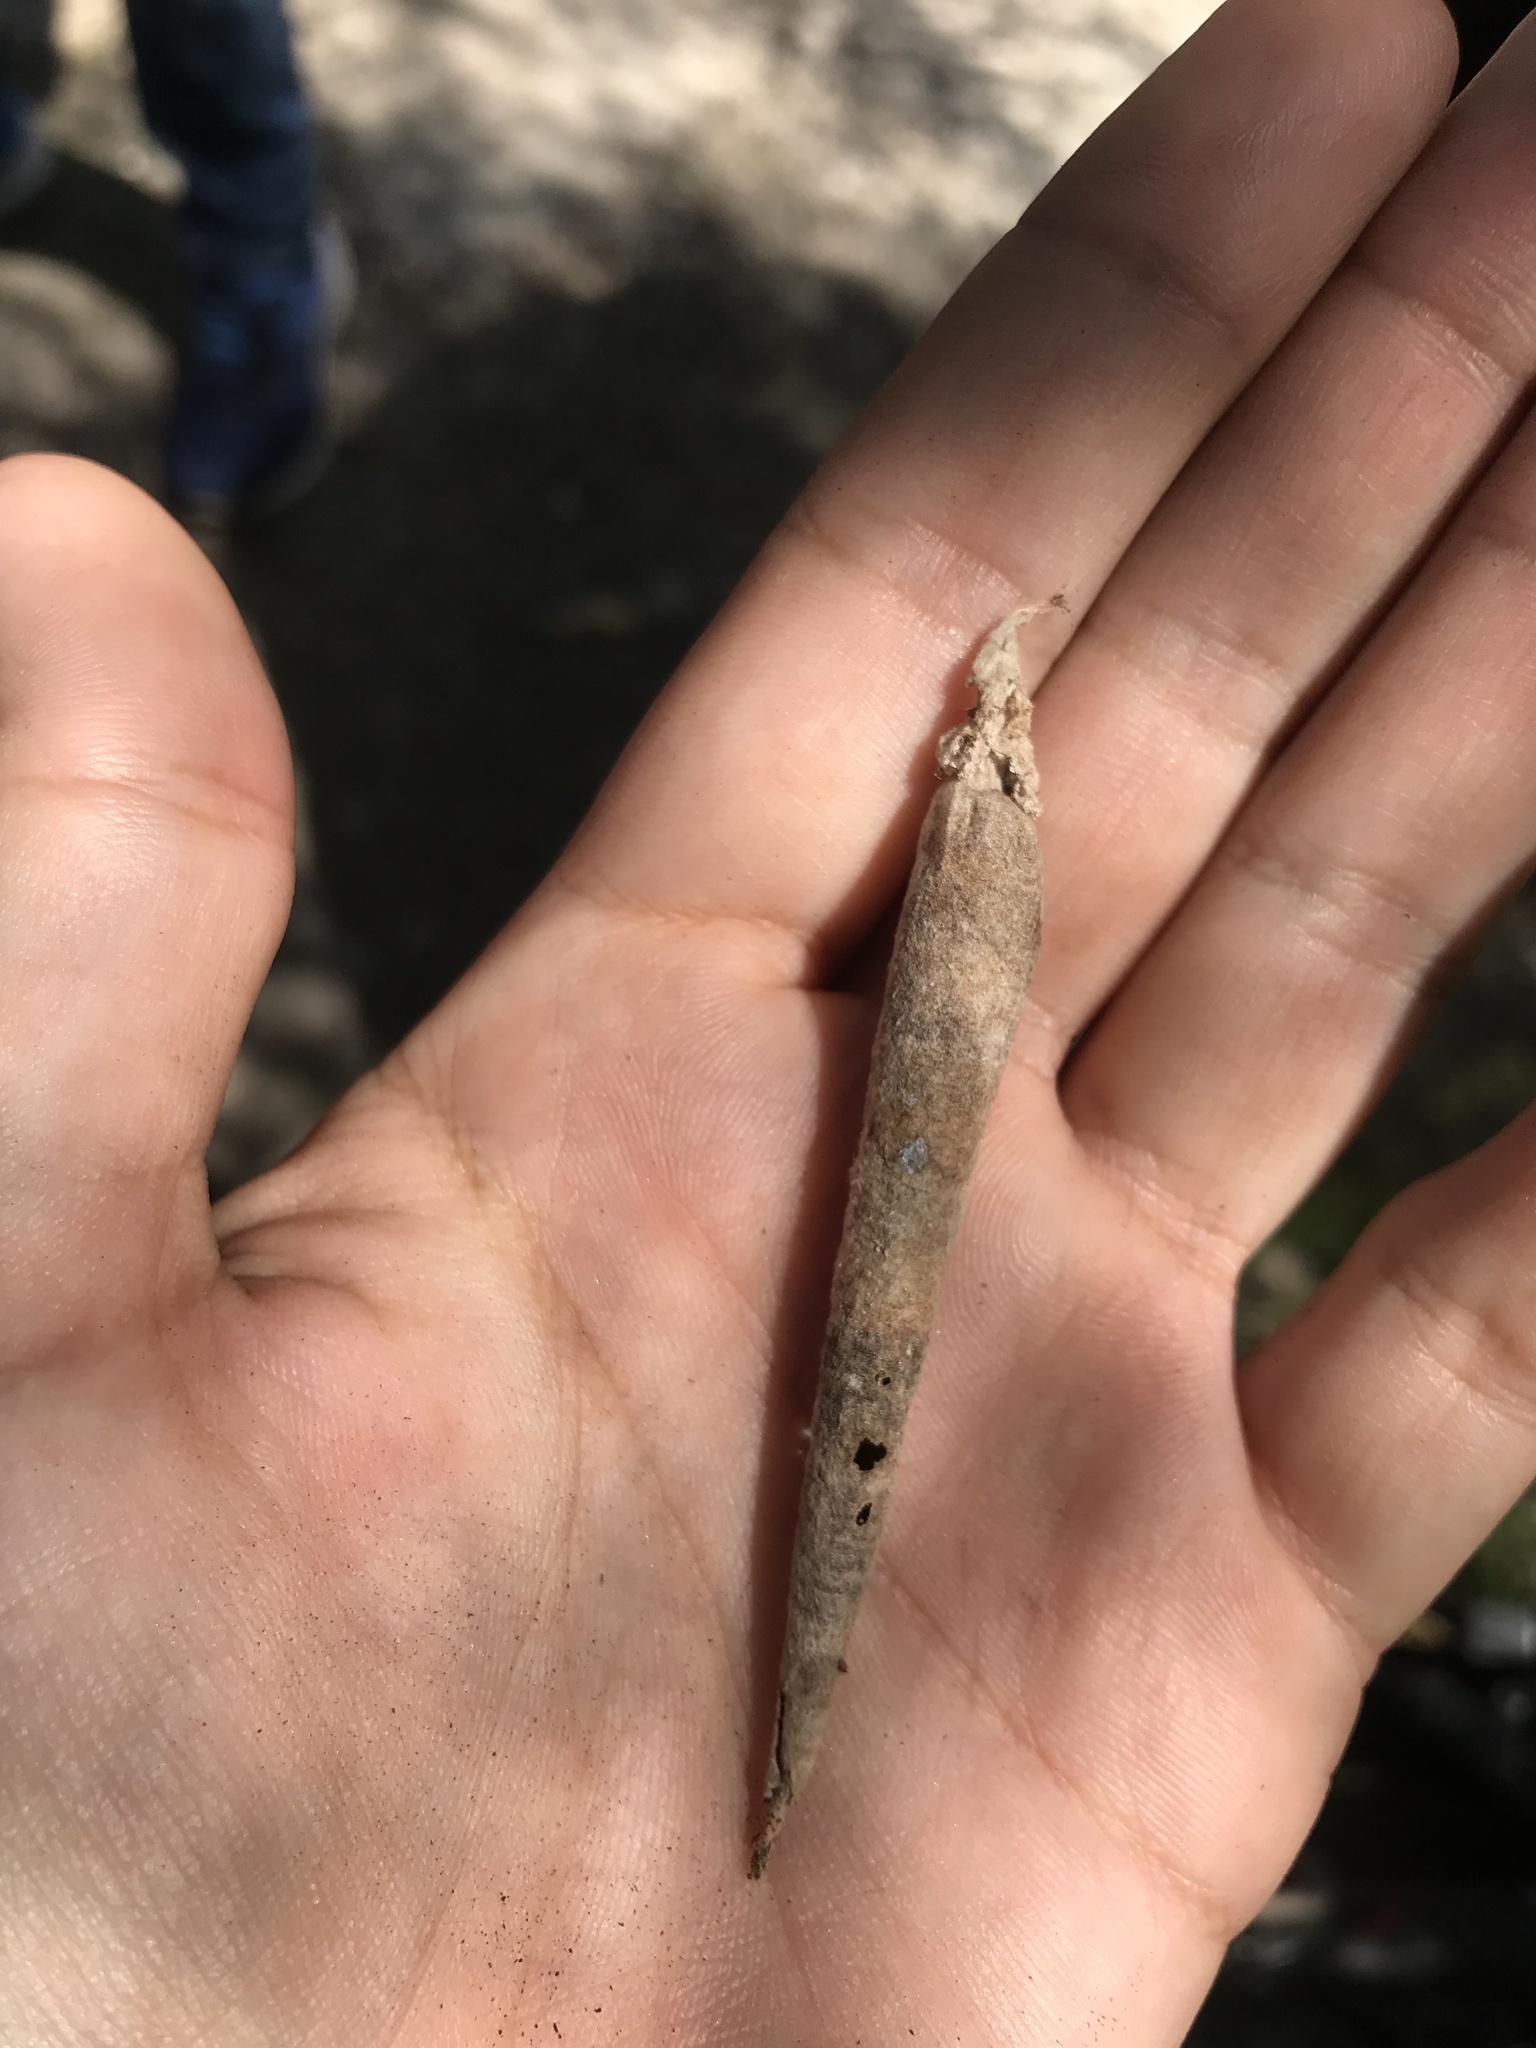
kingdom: Animalia
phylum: Arthropoda
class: Insecta
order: Lepidoptera
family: Psychidae
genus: Oiketicus
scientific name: Oiketicus geyeri
